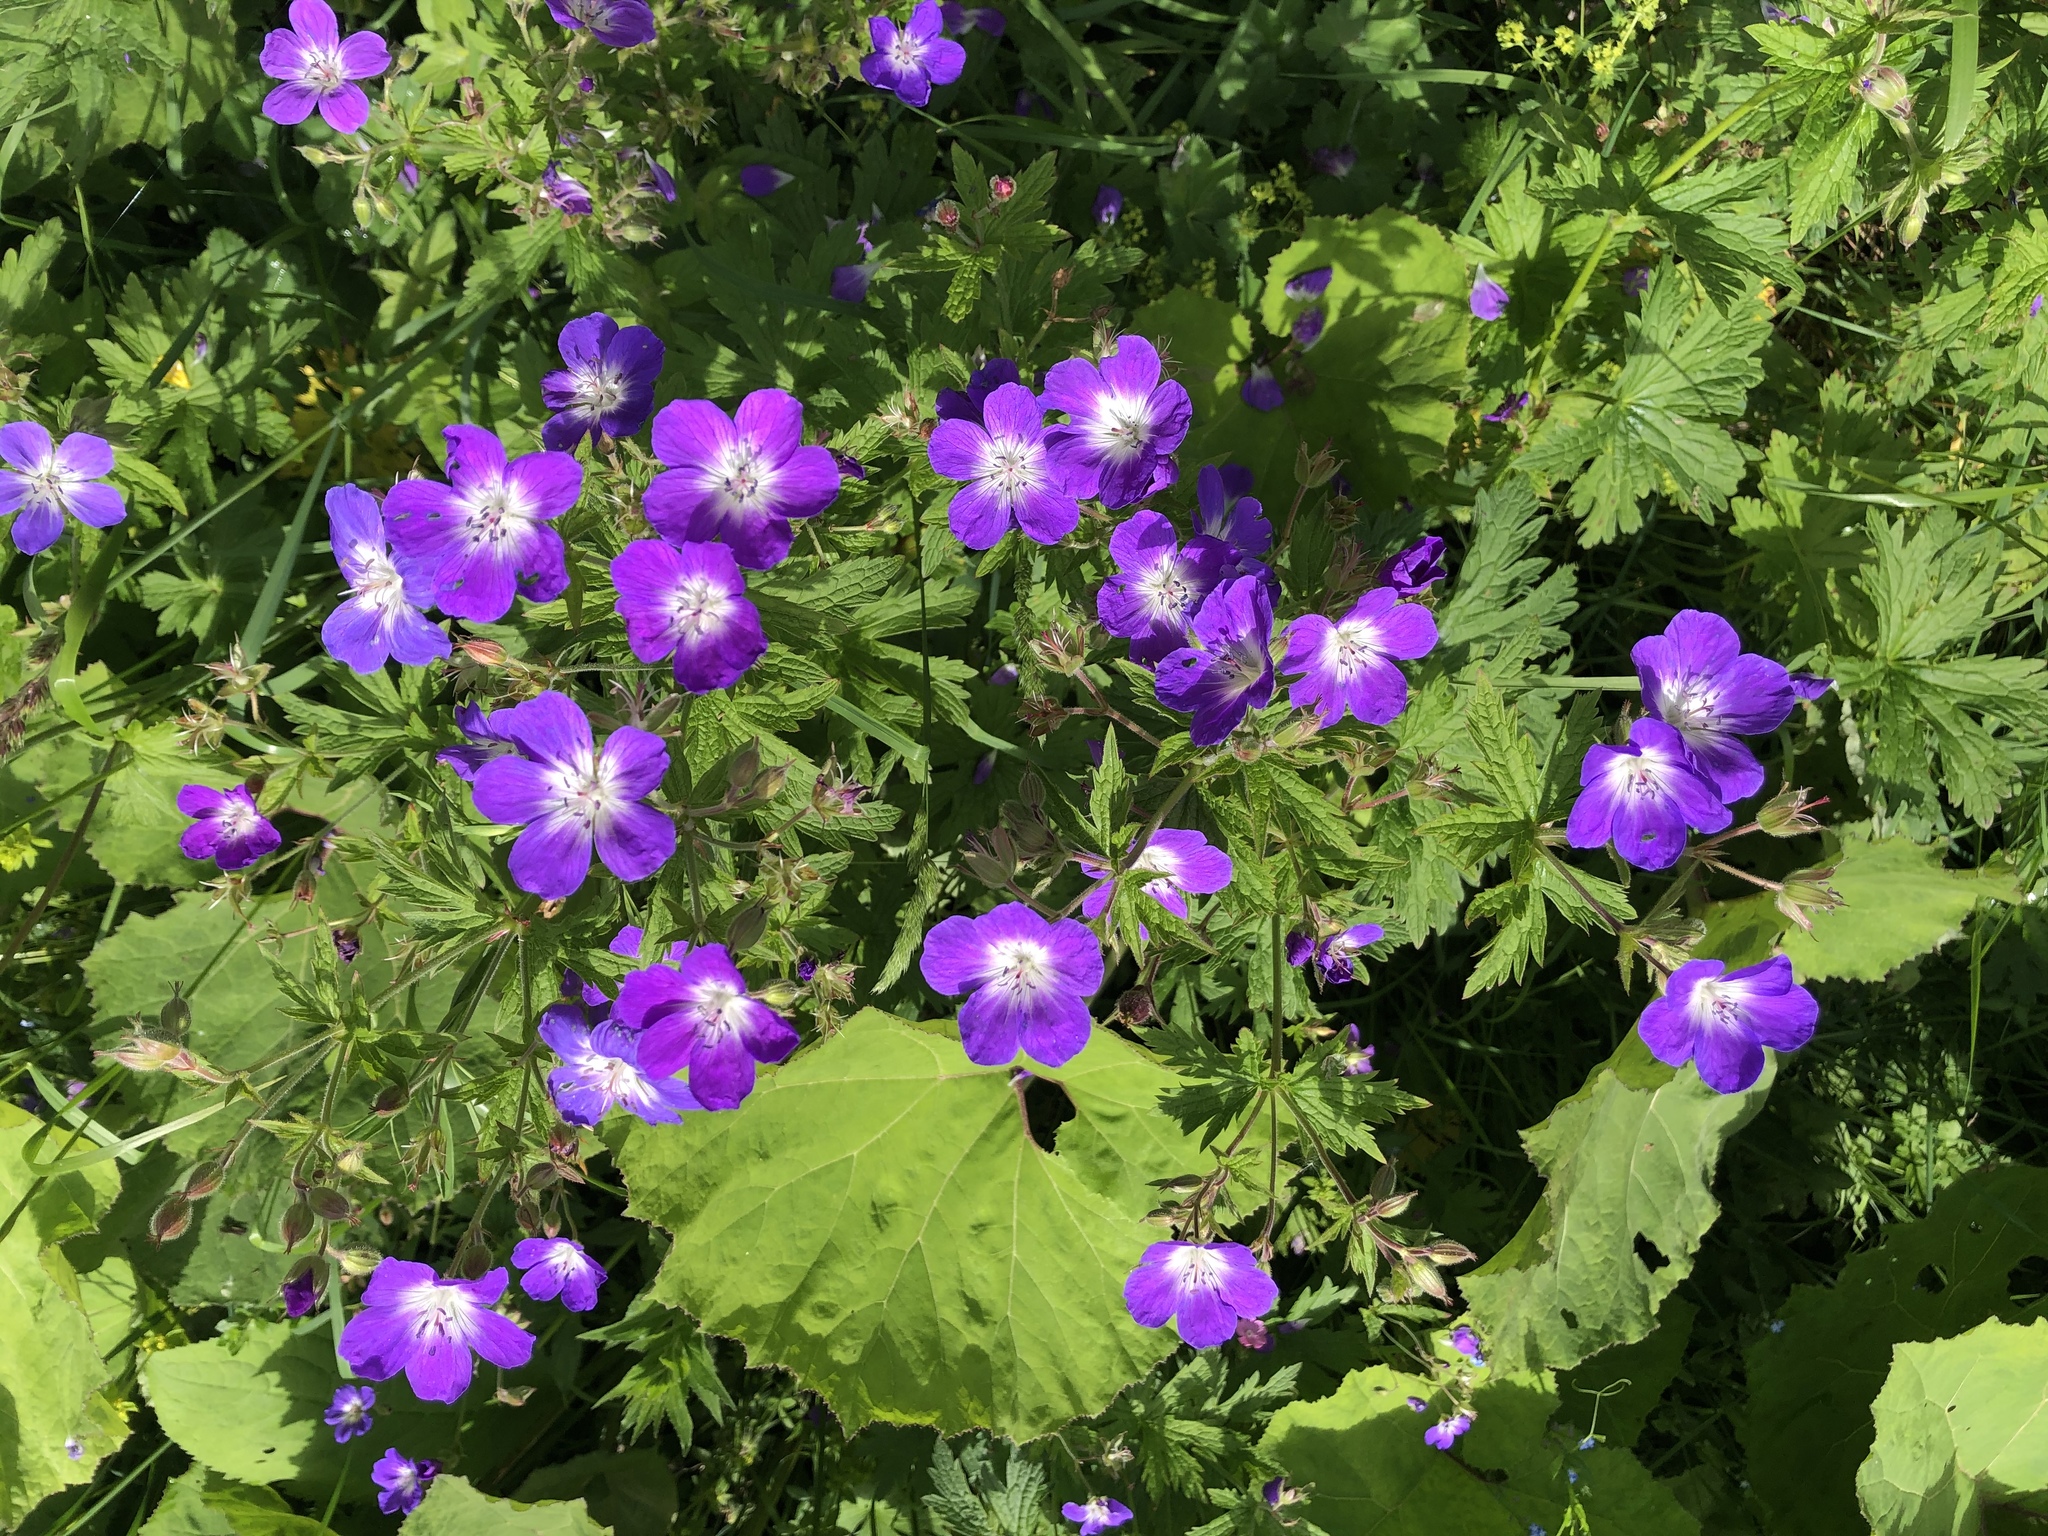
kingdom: Plantae
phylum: Tracheophyta
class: Magnoliopsida
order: Geraniales
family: Geraniaceae
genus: Geranium
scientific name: Geranium sylvaticum
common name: Wood crane's-bill
